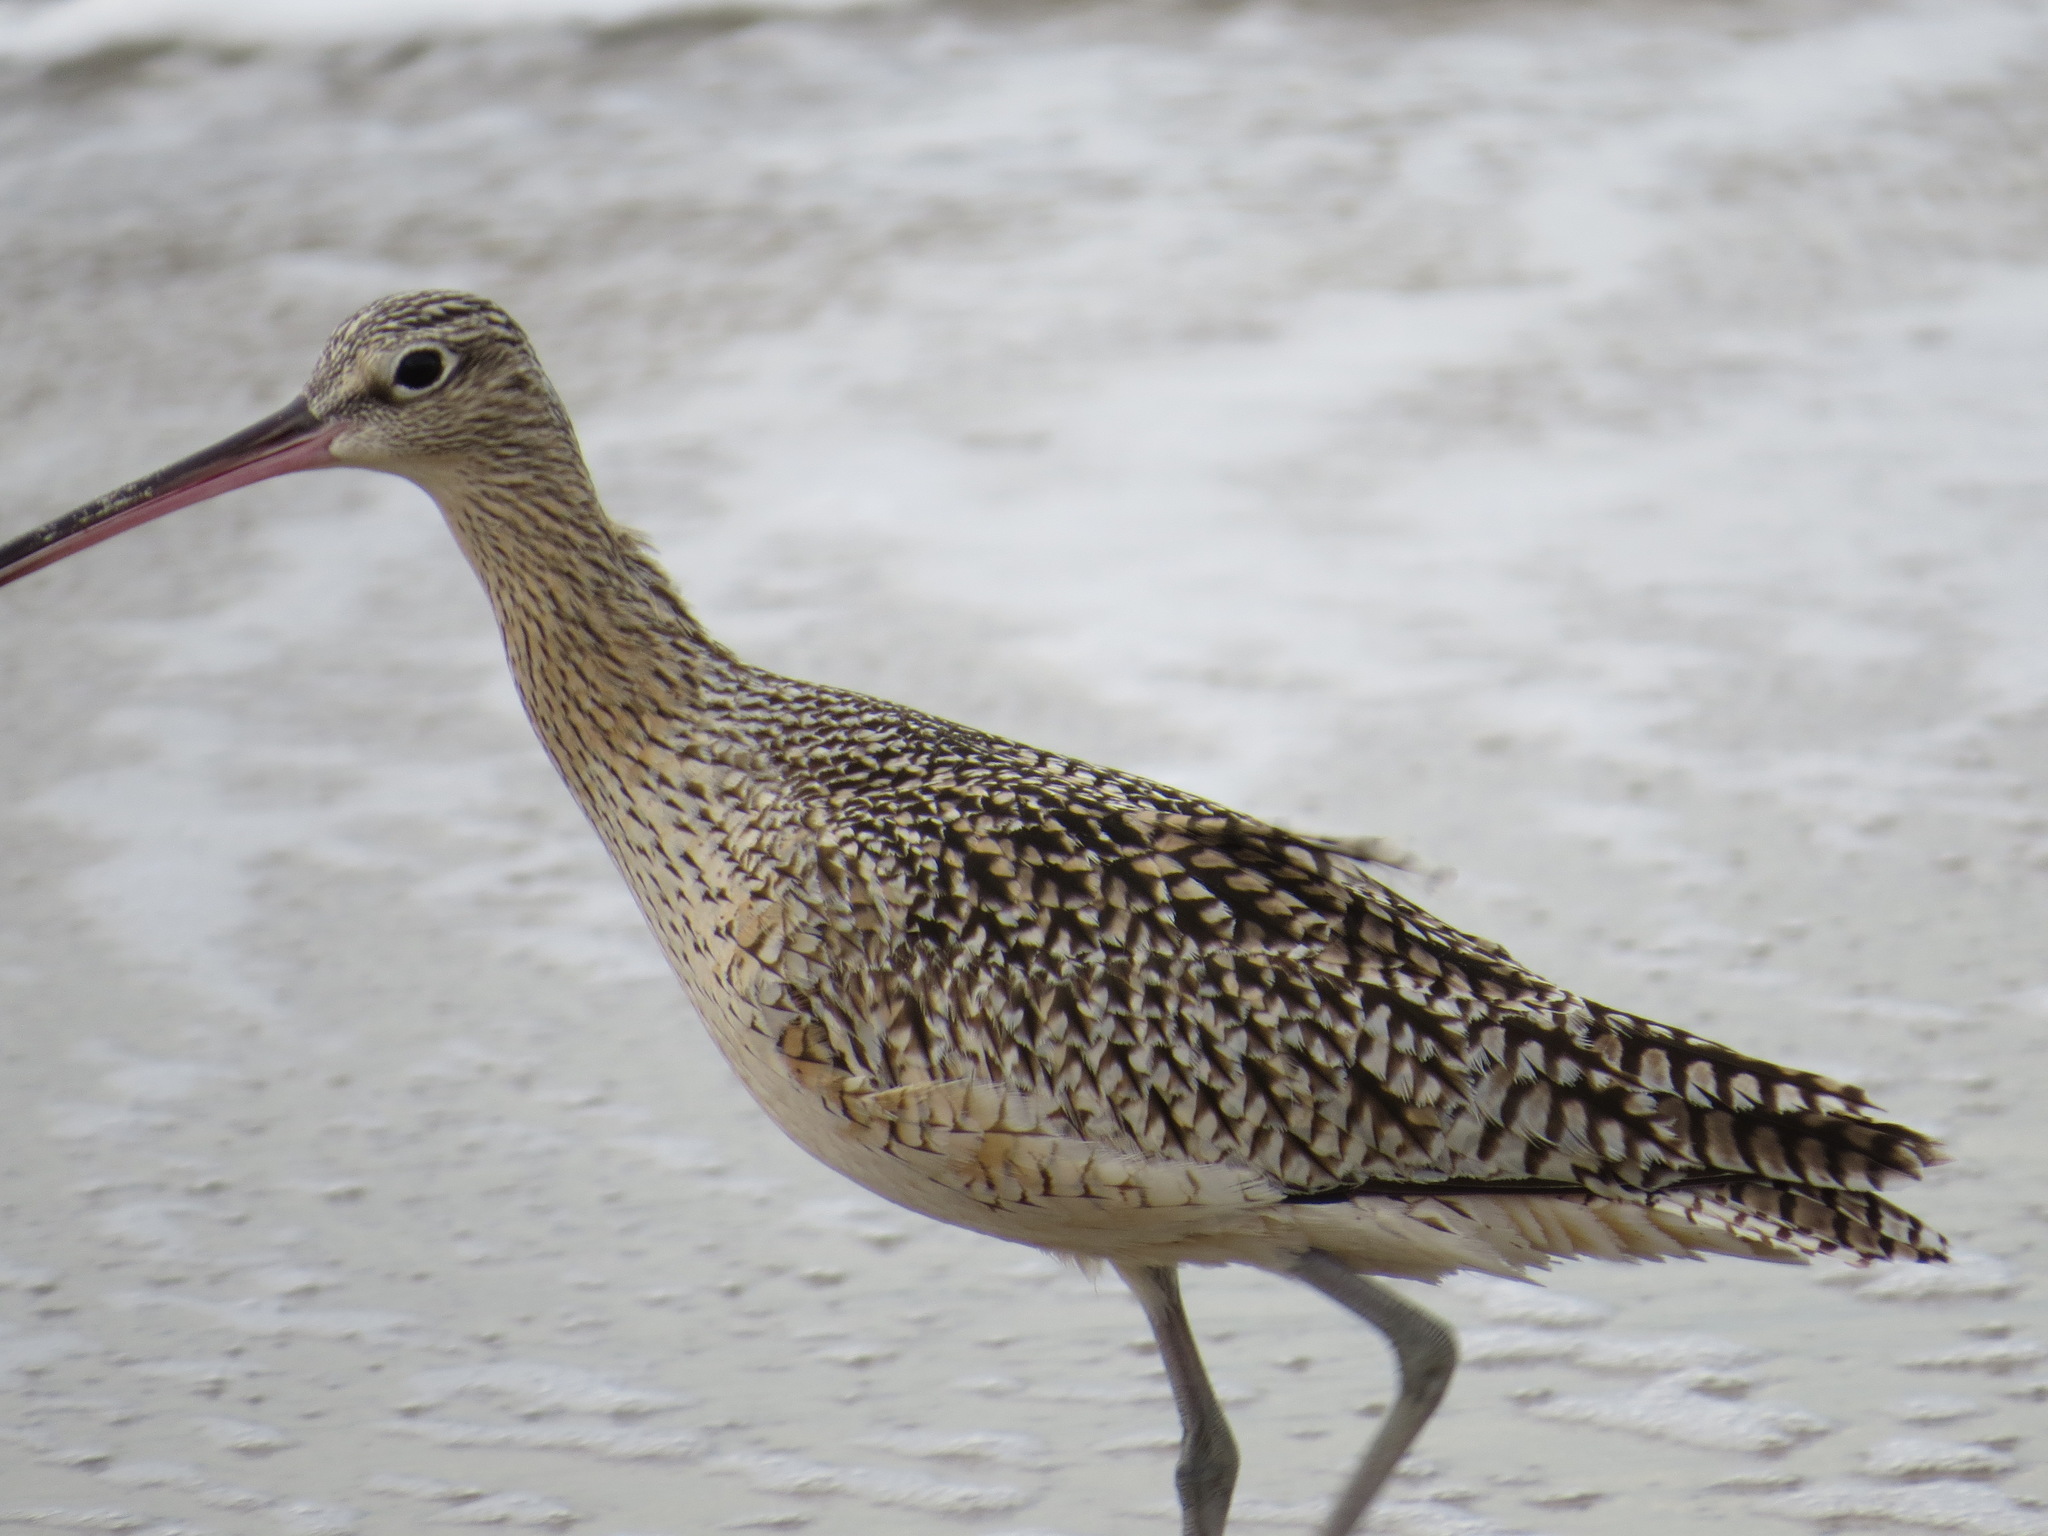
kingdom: Animalia
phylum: Chordata
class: Aves
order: Charadriiformes
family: Scolopacidae
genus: Numenius
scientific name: Numenius americanus
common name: Long-billed curlew
